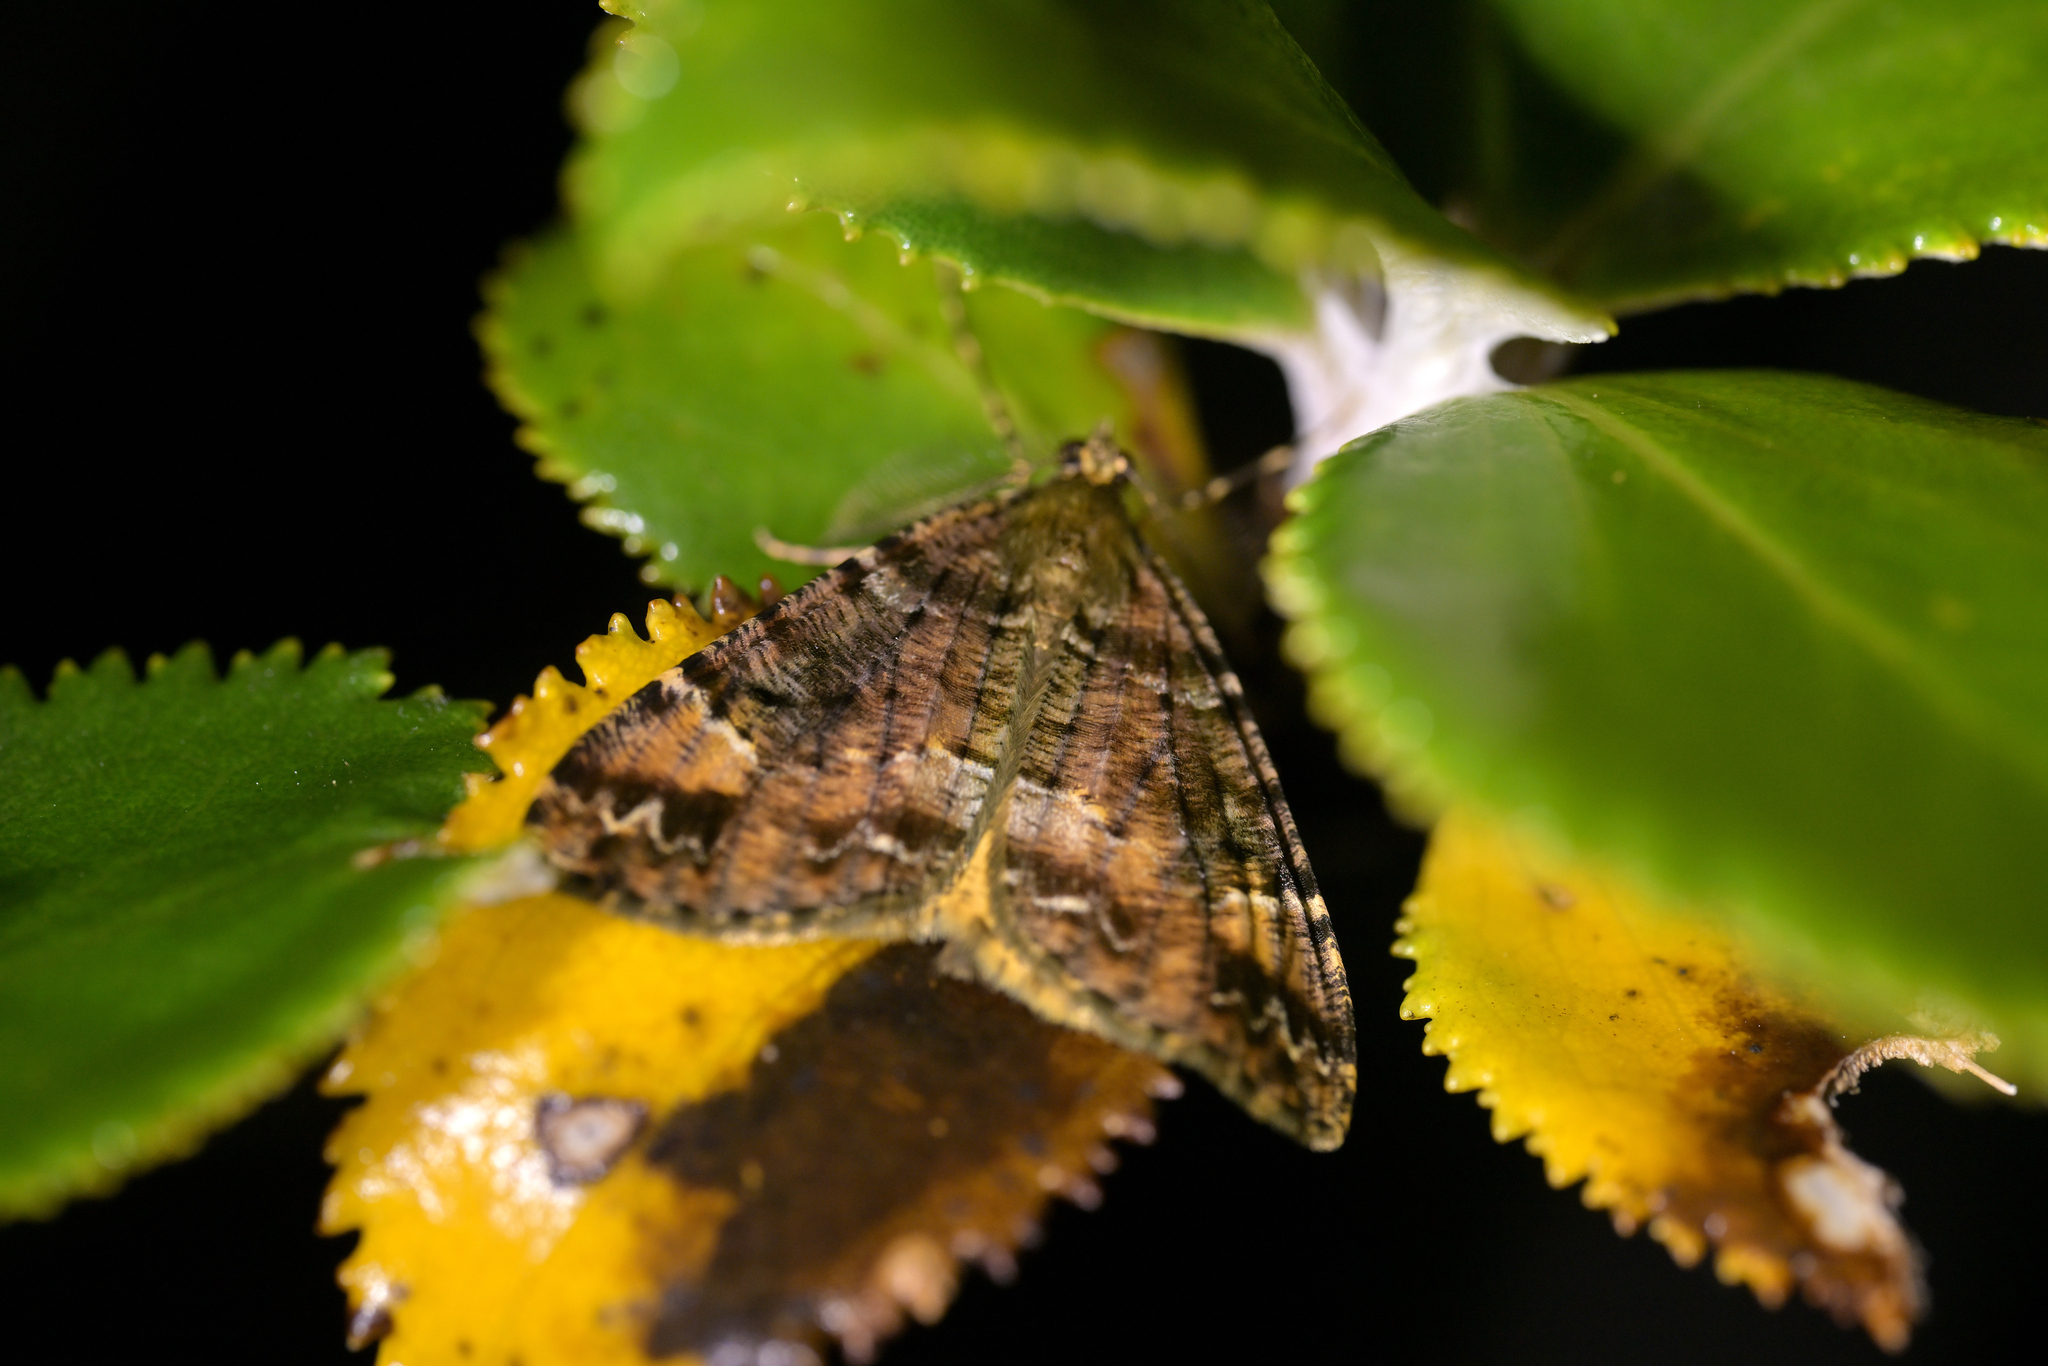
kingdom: Animalia
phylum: Arthropoda
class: Insecta
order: Lepidoptera
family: Geometridae
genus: Pseudocoremia
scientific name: Pseudocoremia productata
